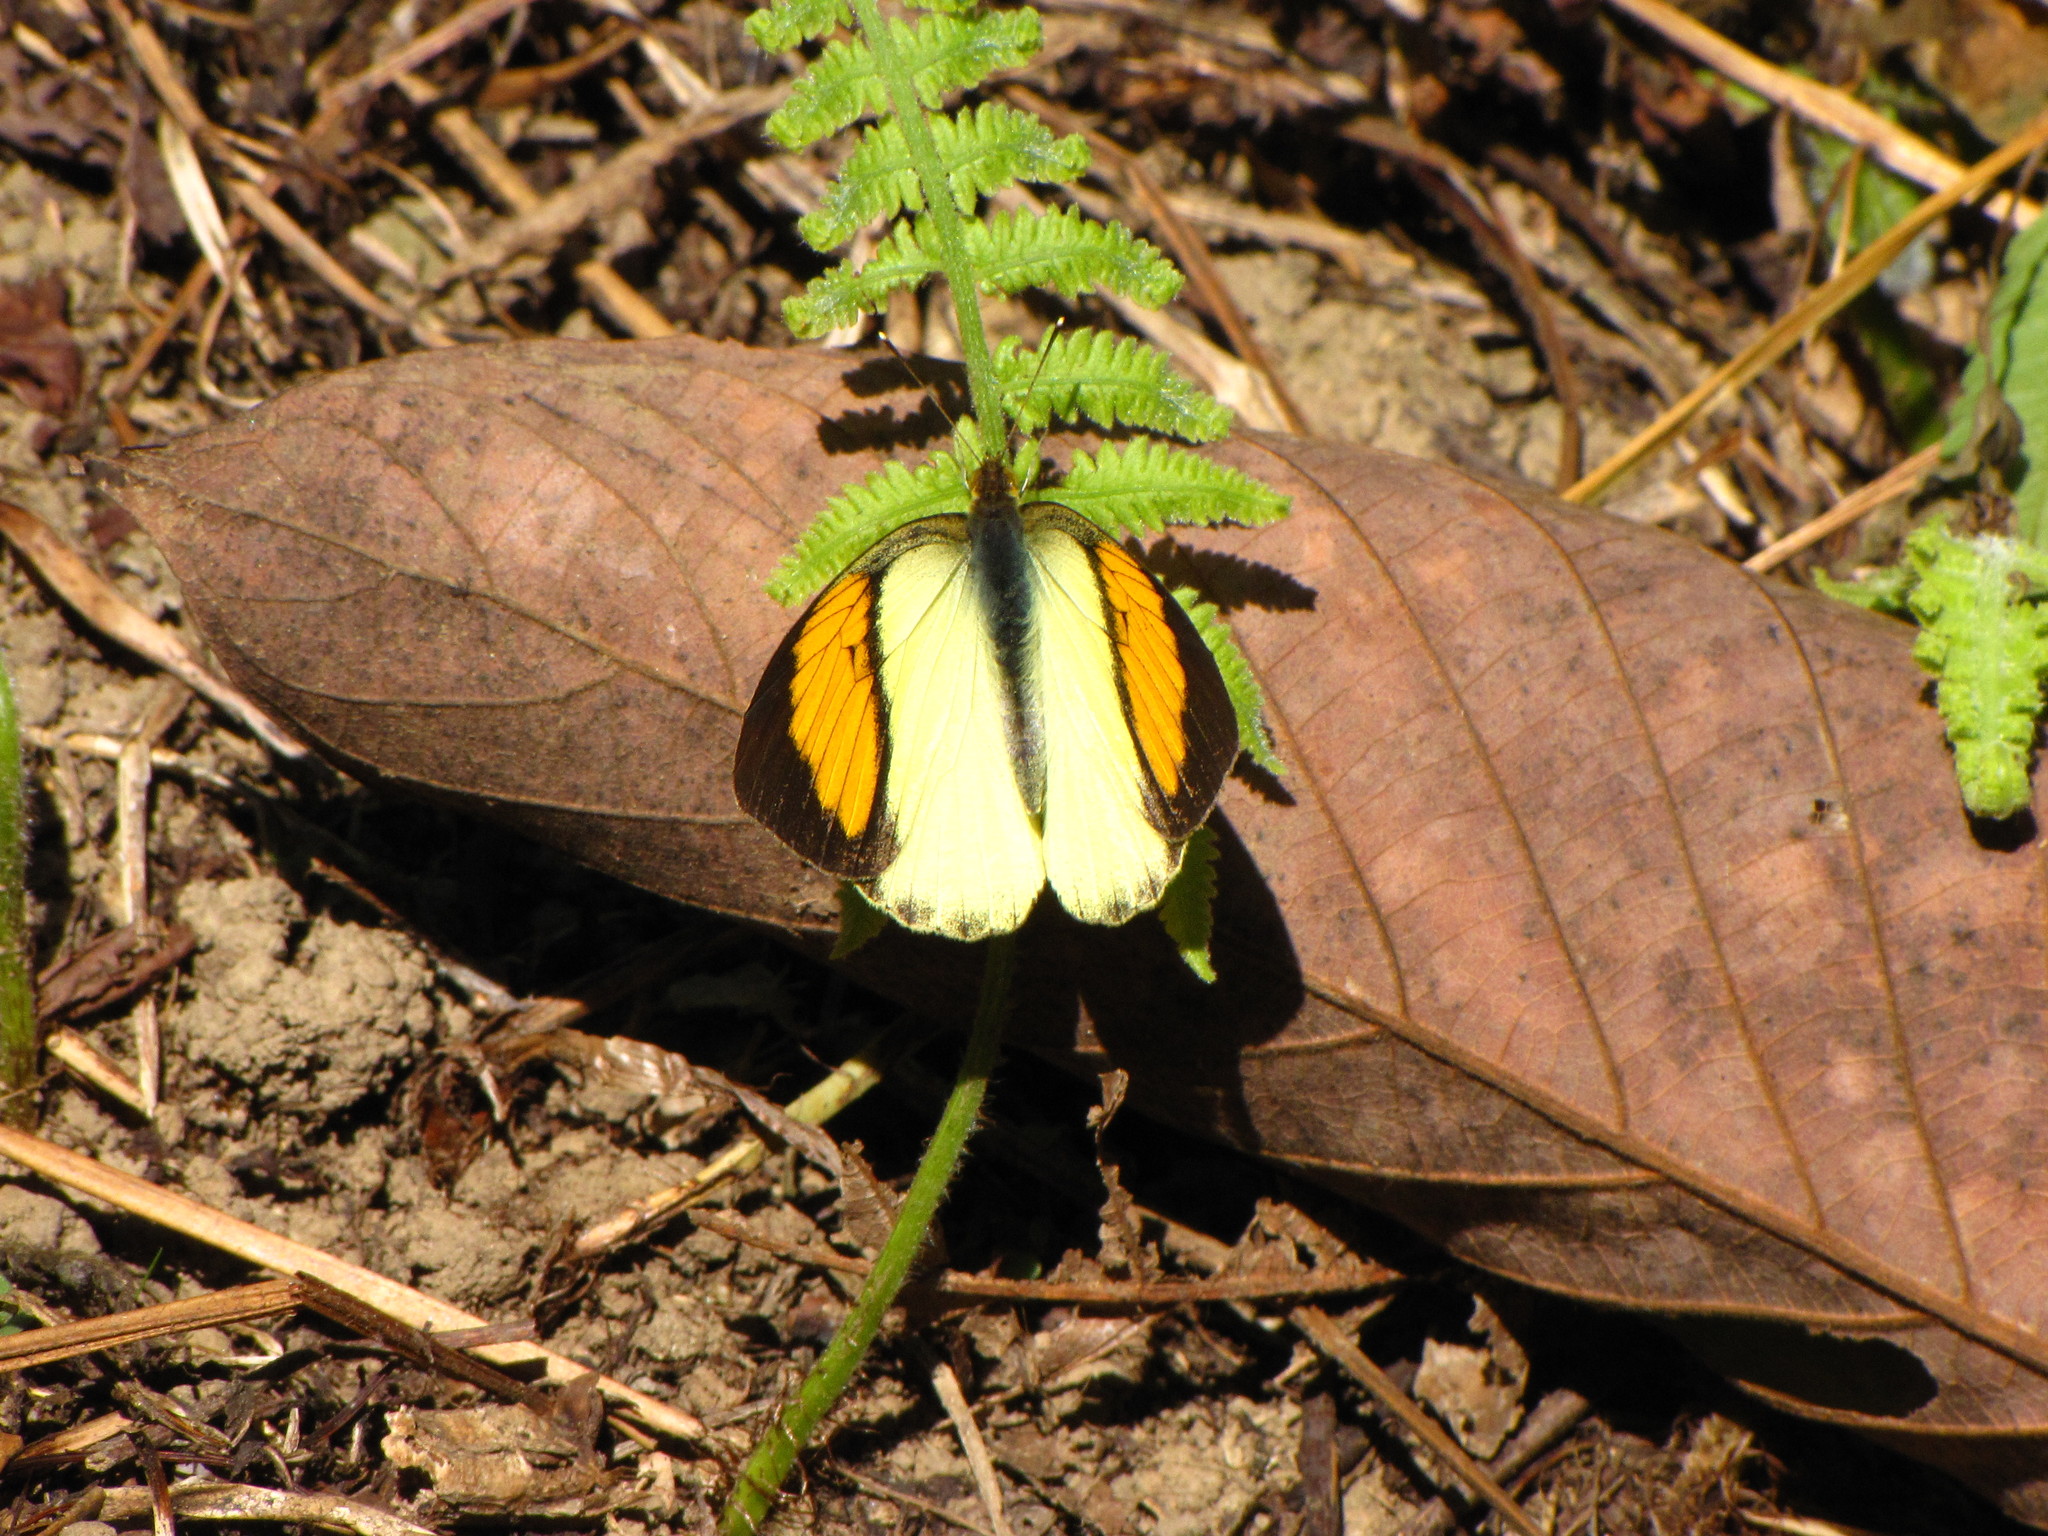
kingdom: Animalia
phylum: Arthropoda
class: Insecta
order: Lepidoptera
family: Pieridae
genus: Ixias
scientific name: Ixias pyrene
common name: Yellow orange tip
